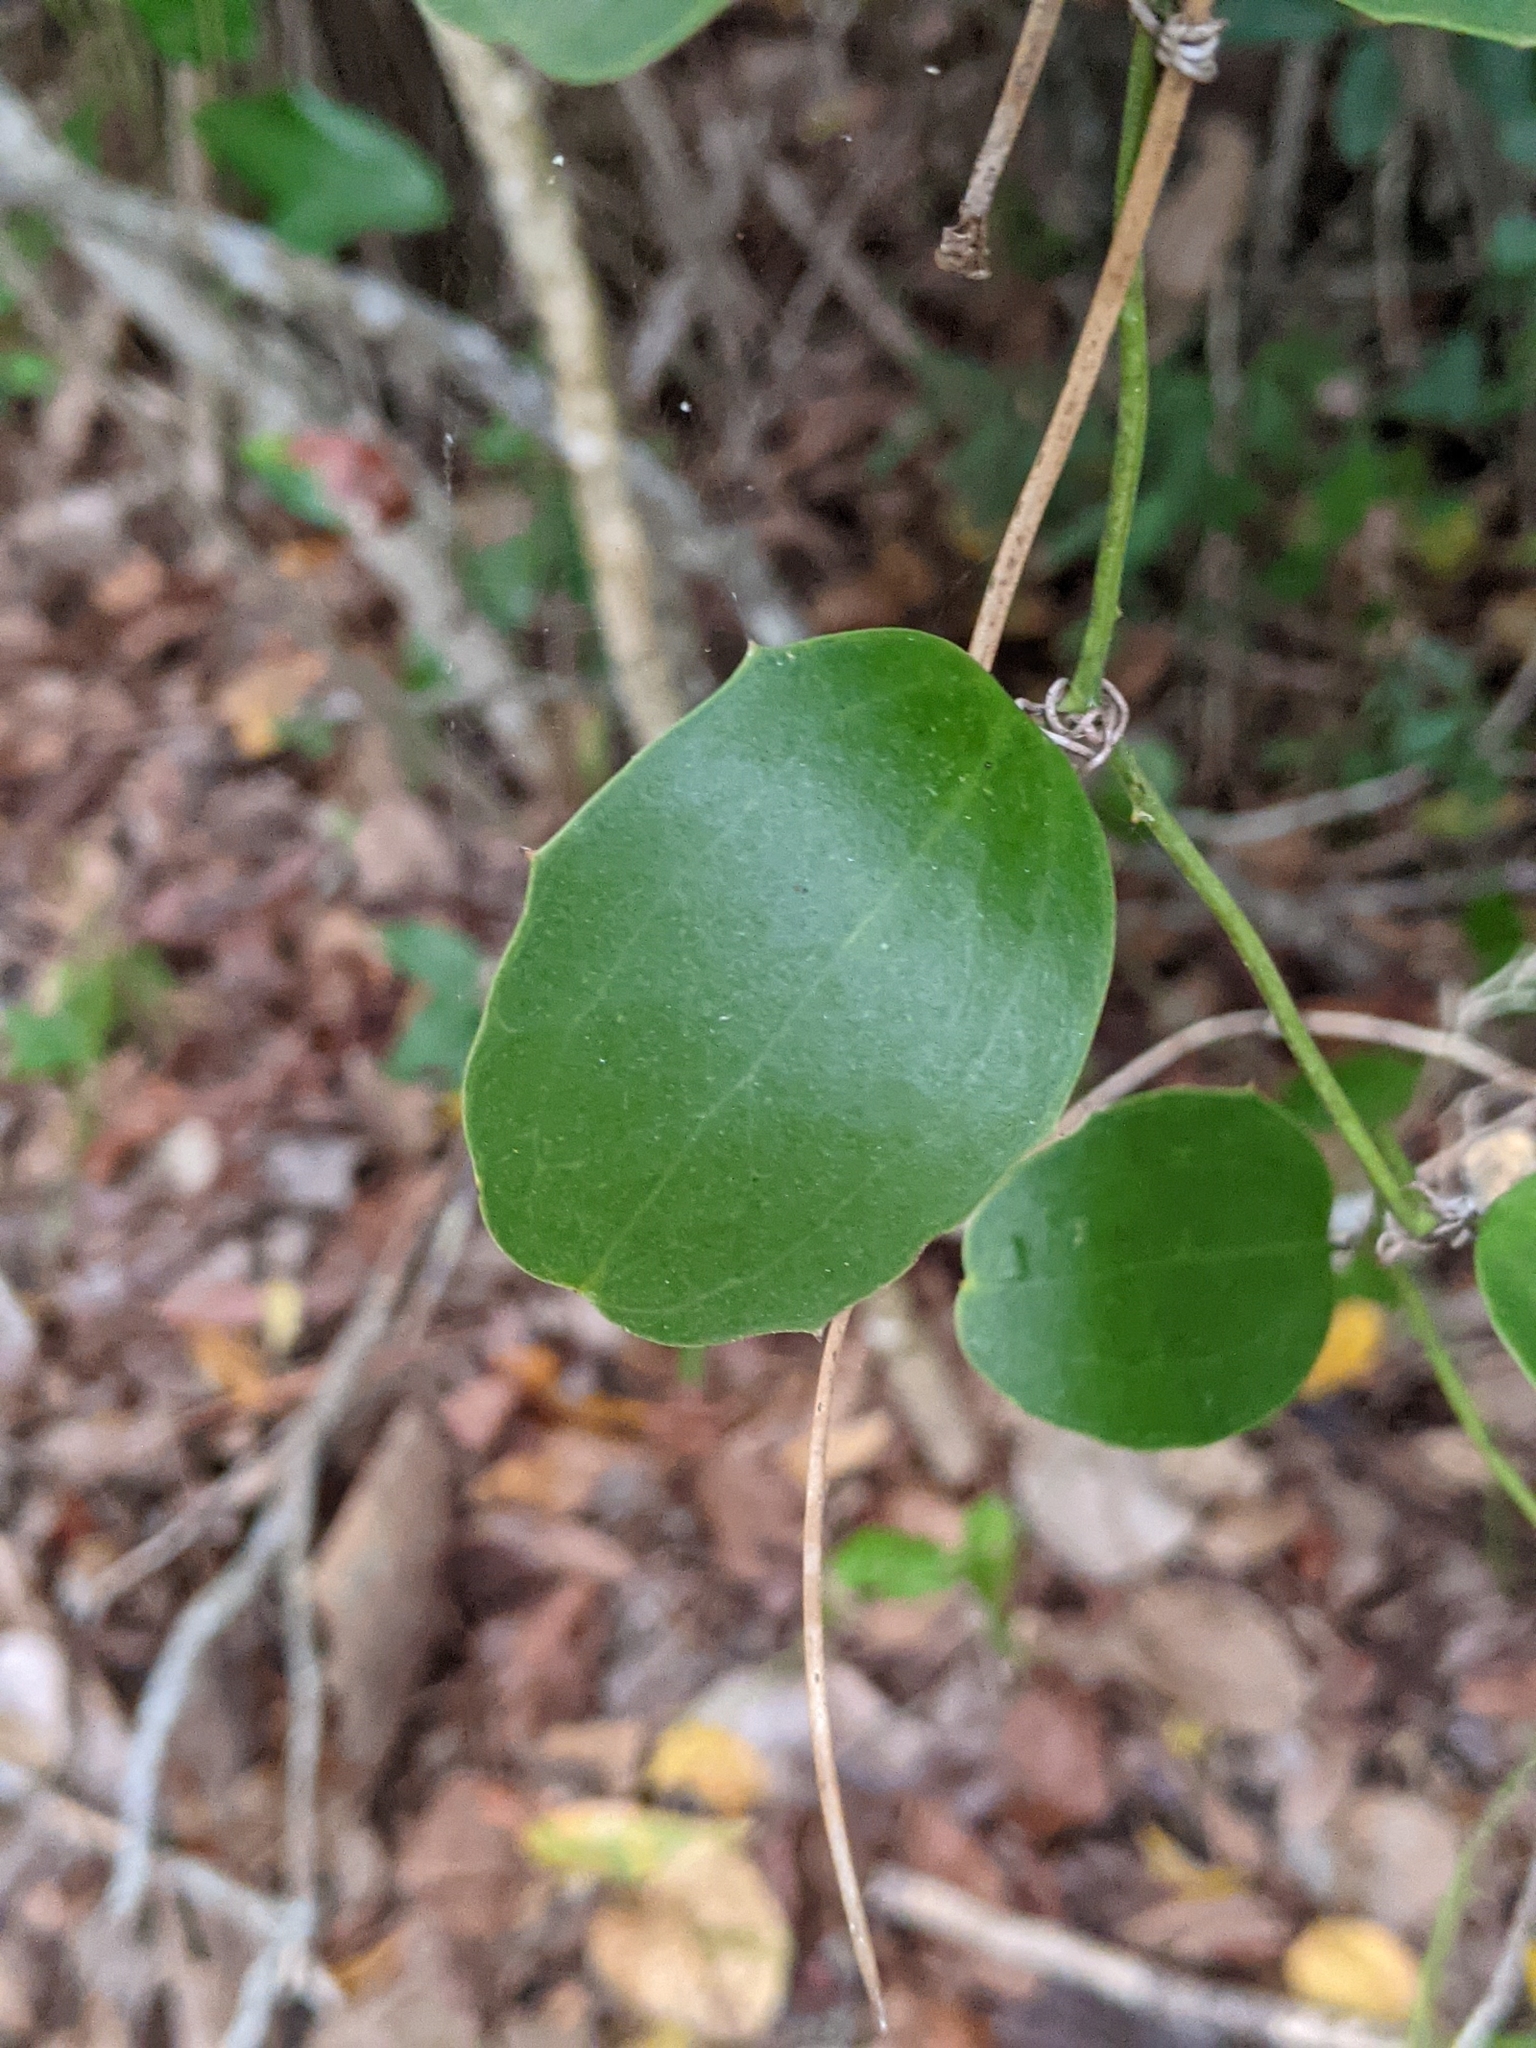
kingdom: Plantae
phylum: Tracheophyta
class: Liliopsida
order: Liliales
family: Smilacaceae
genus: Smilax
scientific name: Smilax havanensis
